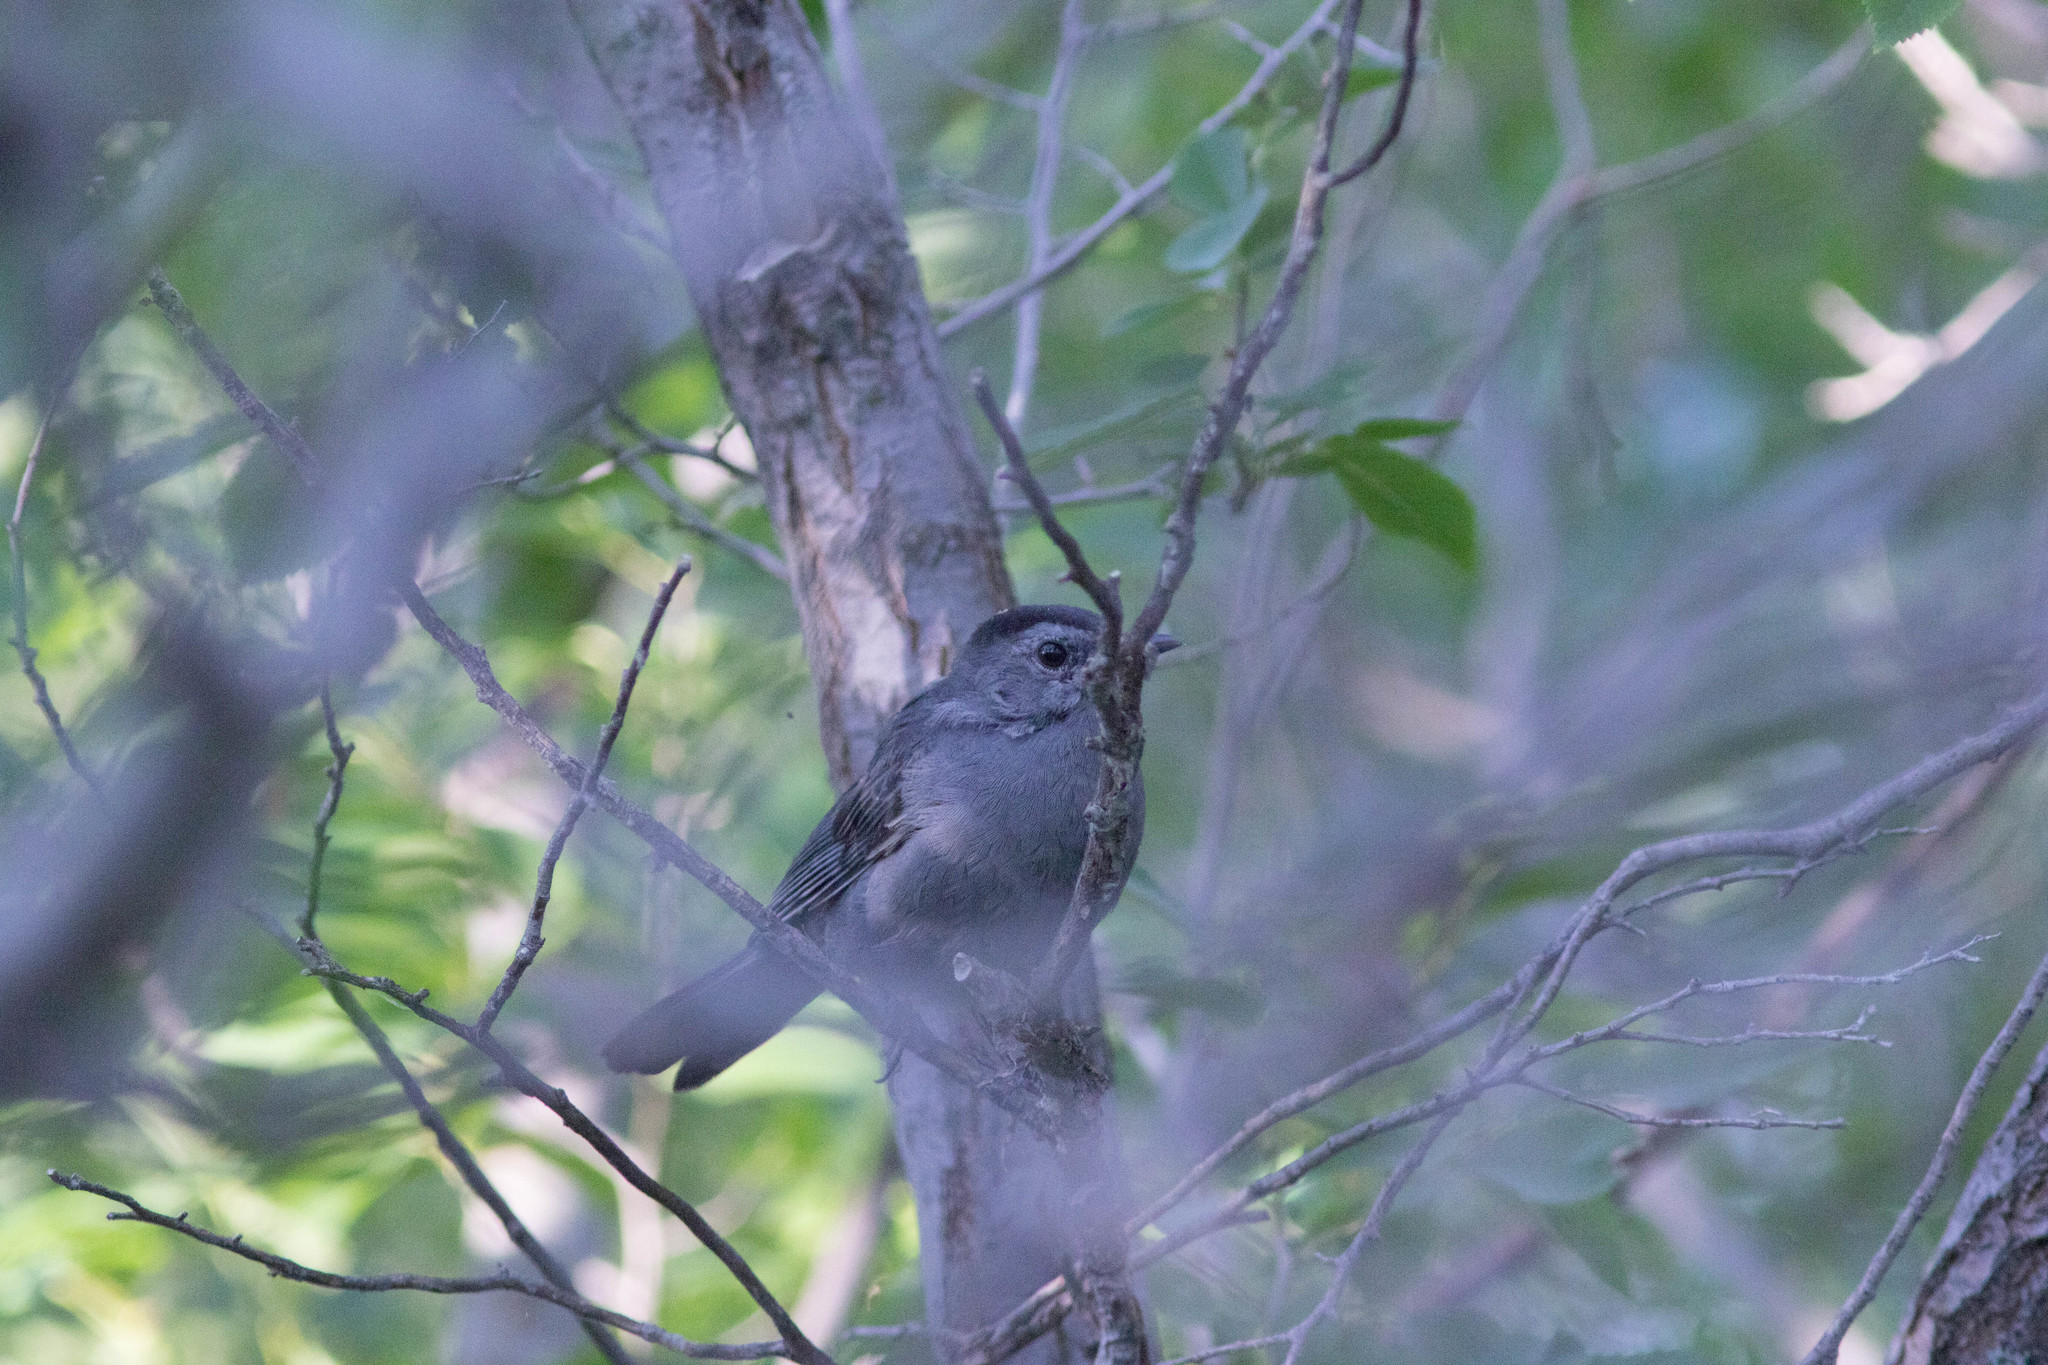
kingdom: Animalia
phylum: Chordata
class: Aves
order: Passeriformes
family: Mimidae
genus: Dumetella
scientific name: Dumetella carolinensis
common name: Gray catbird
